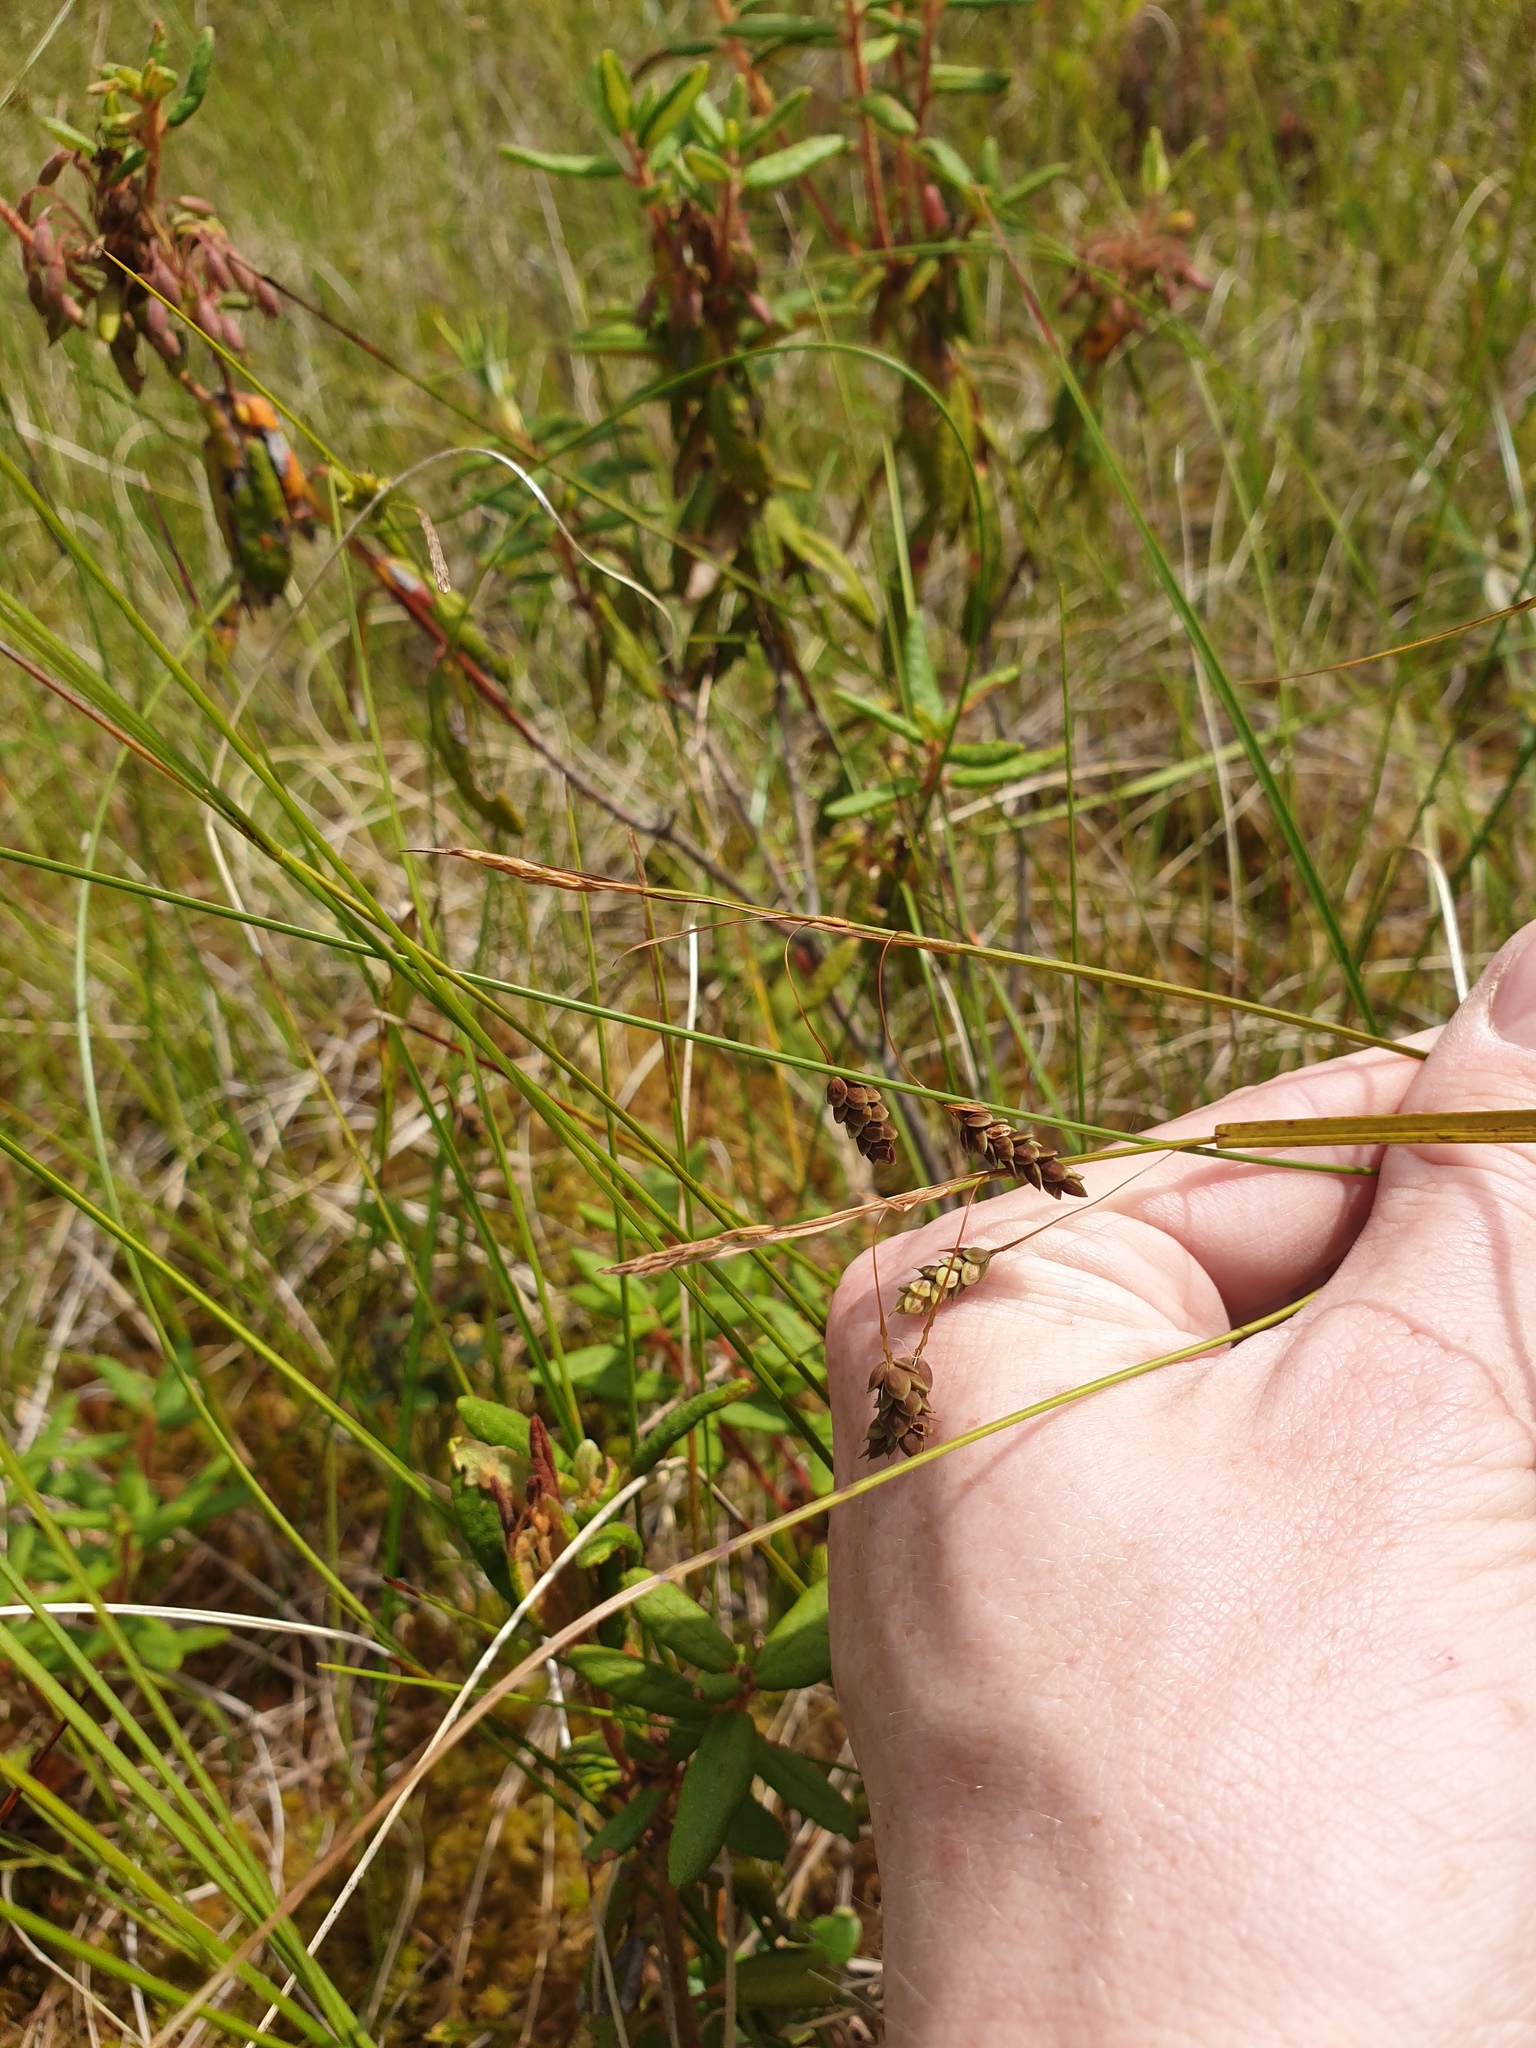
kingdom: Plantae
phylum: Tracheophyta
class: Liliopsida
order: Poales
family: Cyperaceae
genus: Carex
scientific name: Carex magellanica
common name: Bog sedge
